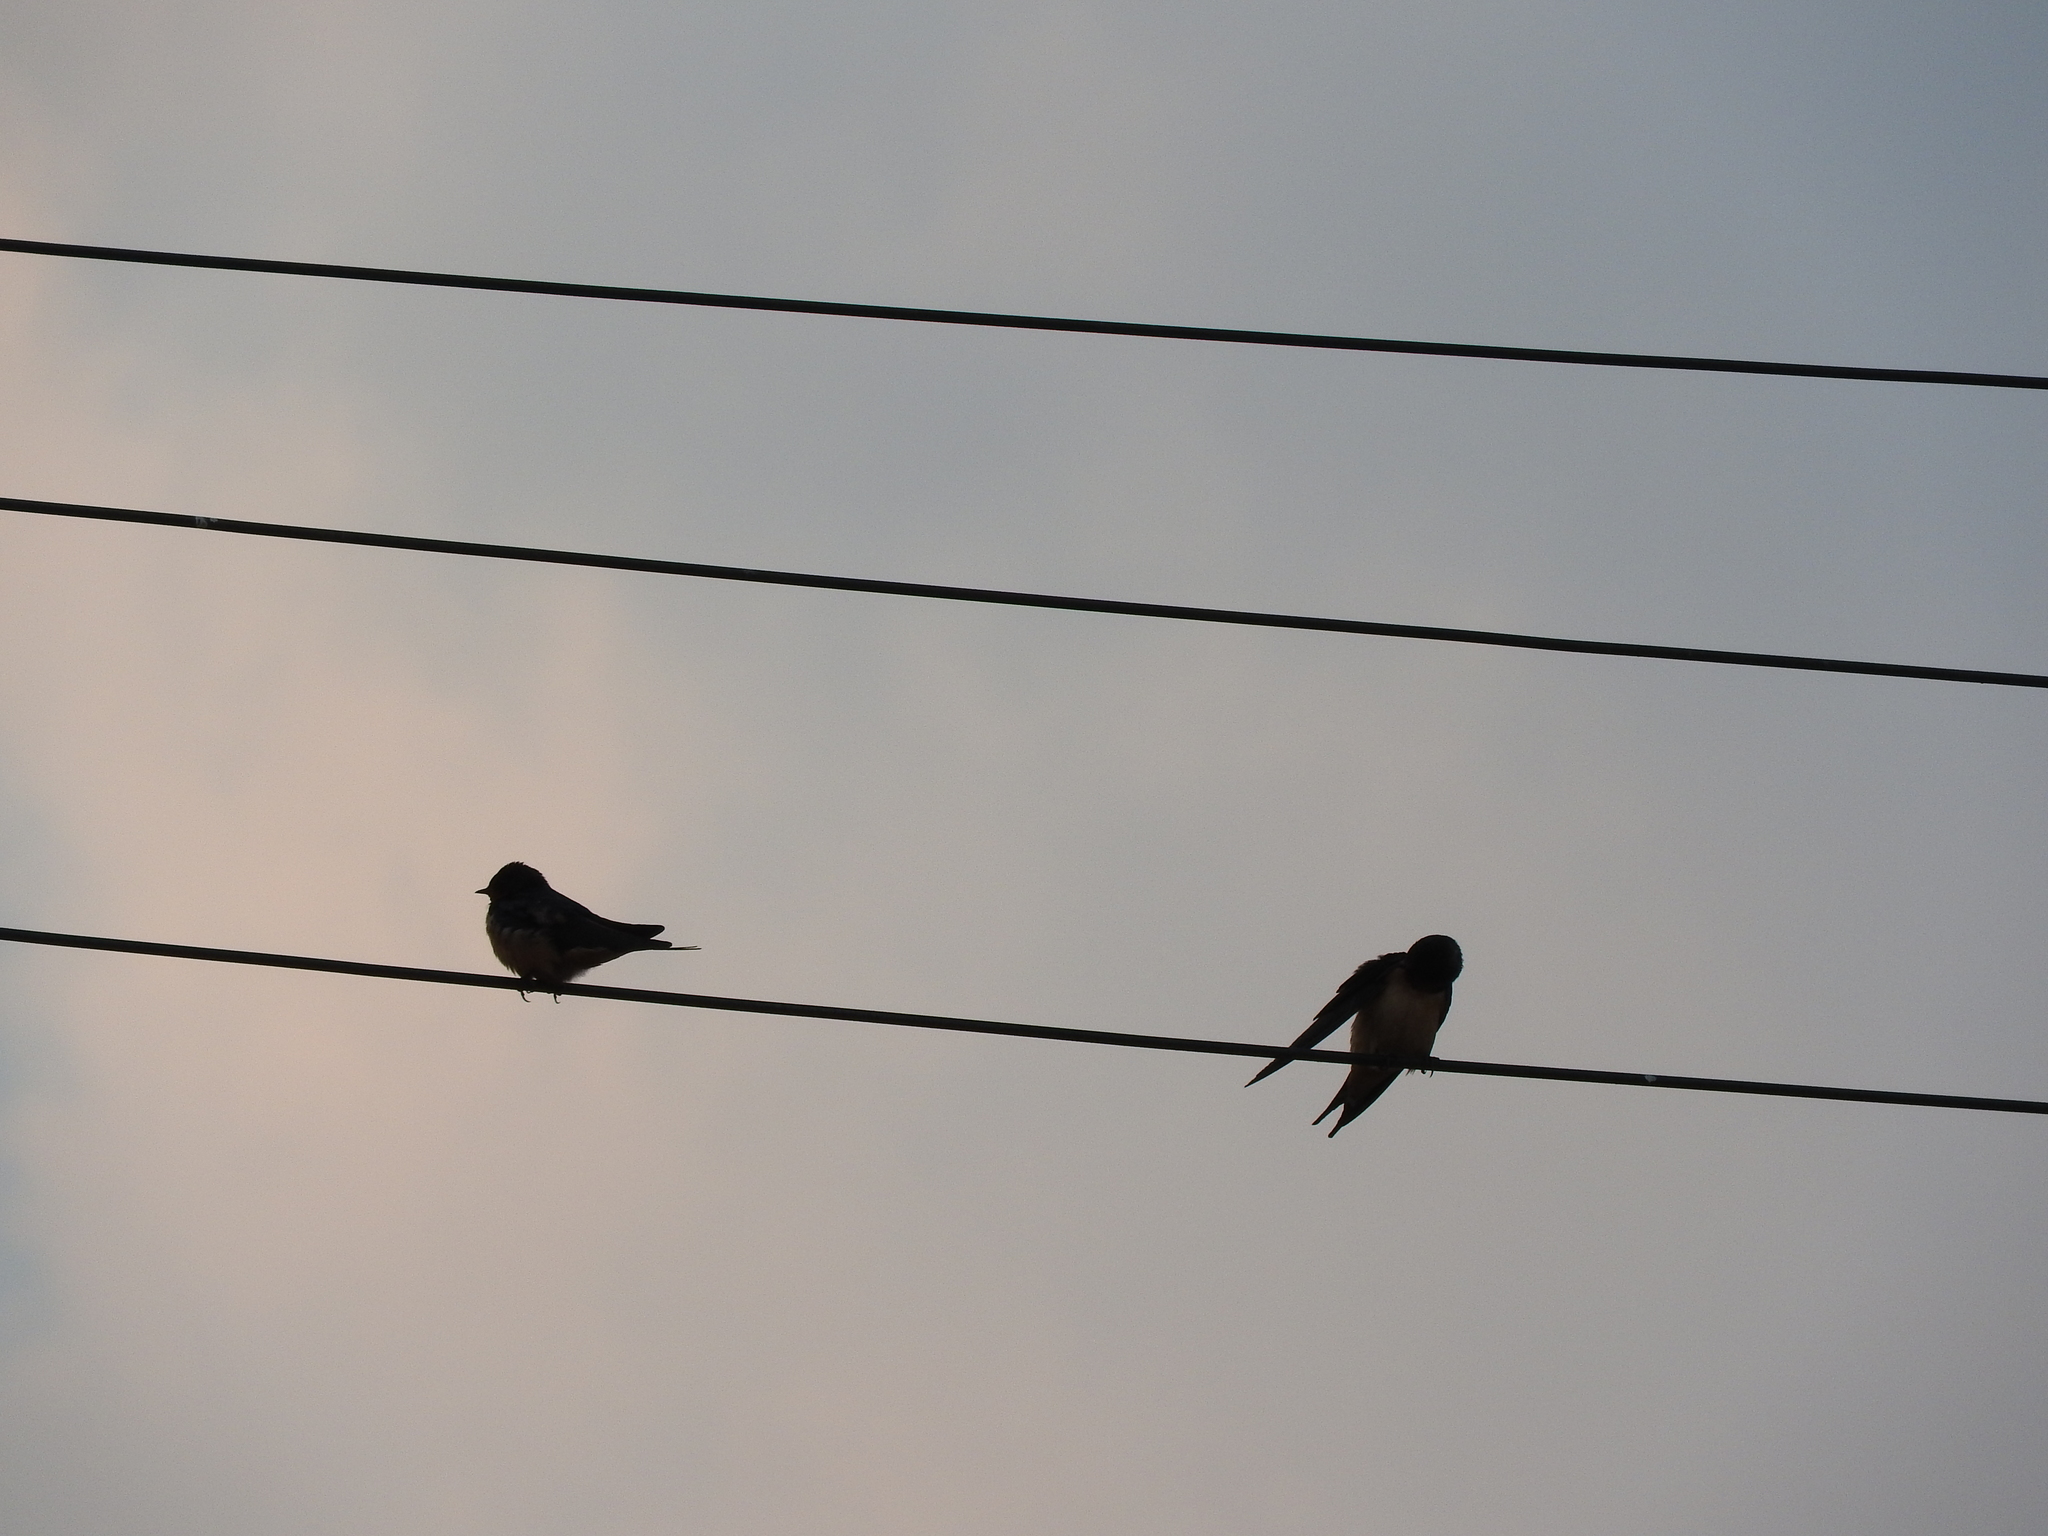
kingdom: Animalia
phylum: Chordata
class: Aves
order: Passeriformes
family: Hirundinidae
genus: Hirundo
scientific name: Hirundo rustica
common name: Barn swallow
